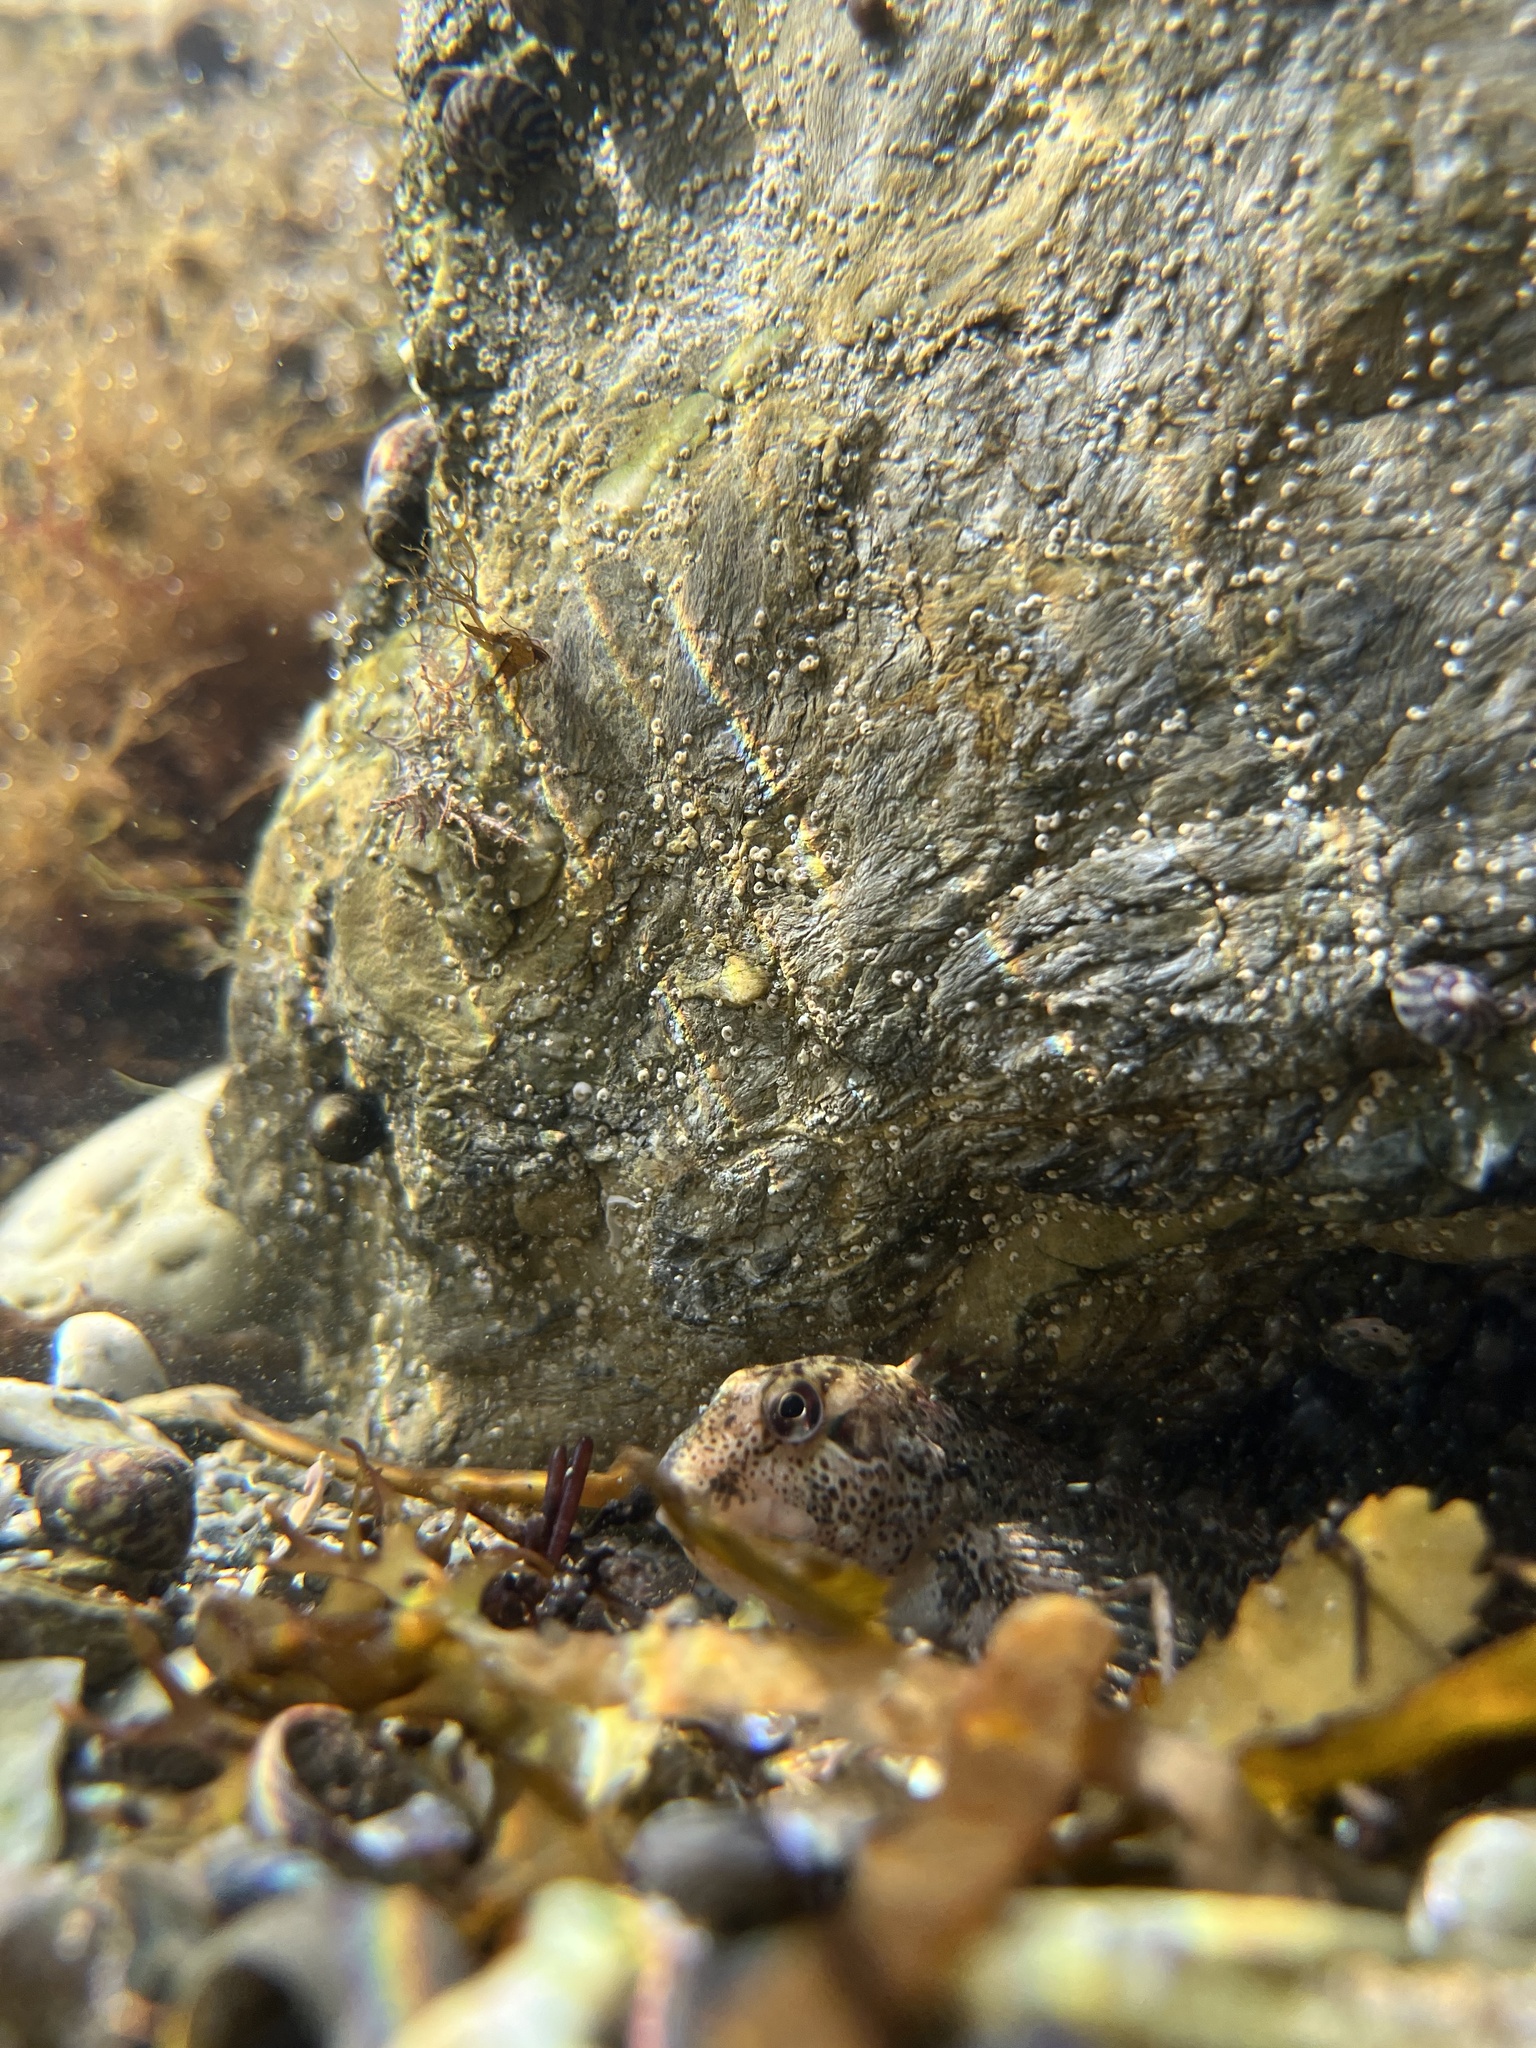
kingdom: Animalia
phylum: Chordata
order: Perciformes
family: Blenniidae
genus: Lipophrys
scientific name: Lipophrys pholis
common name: Shanny
